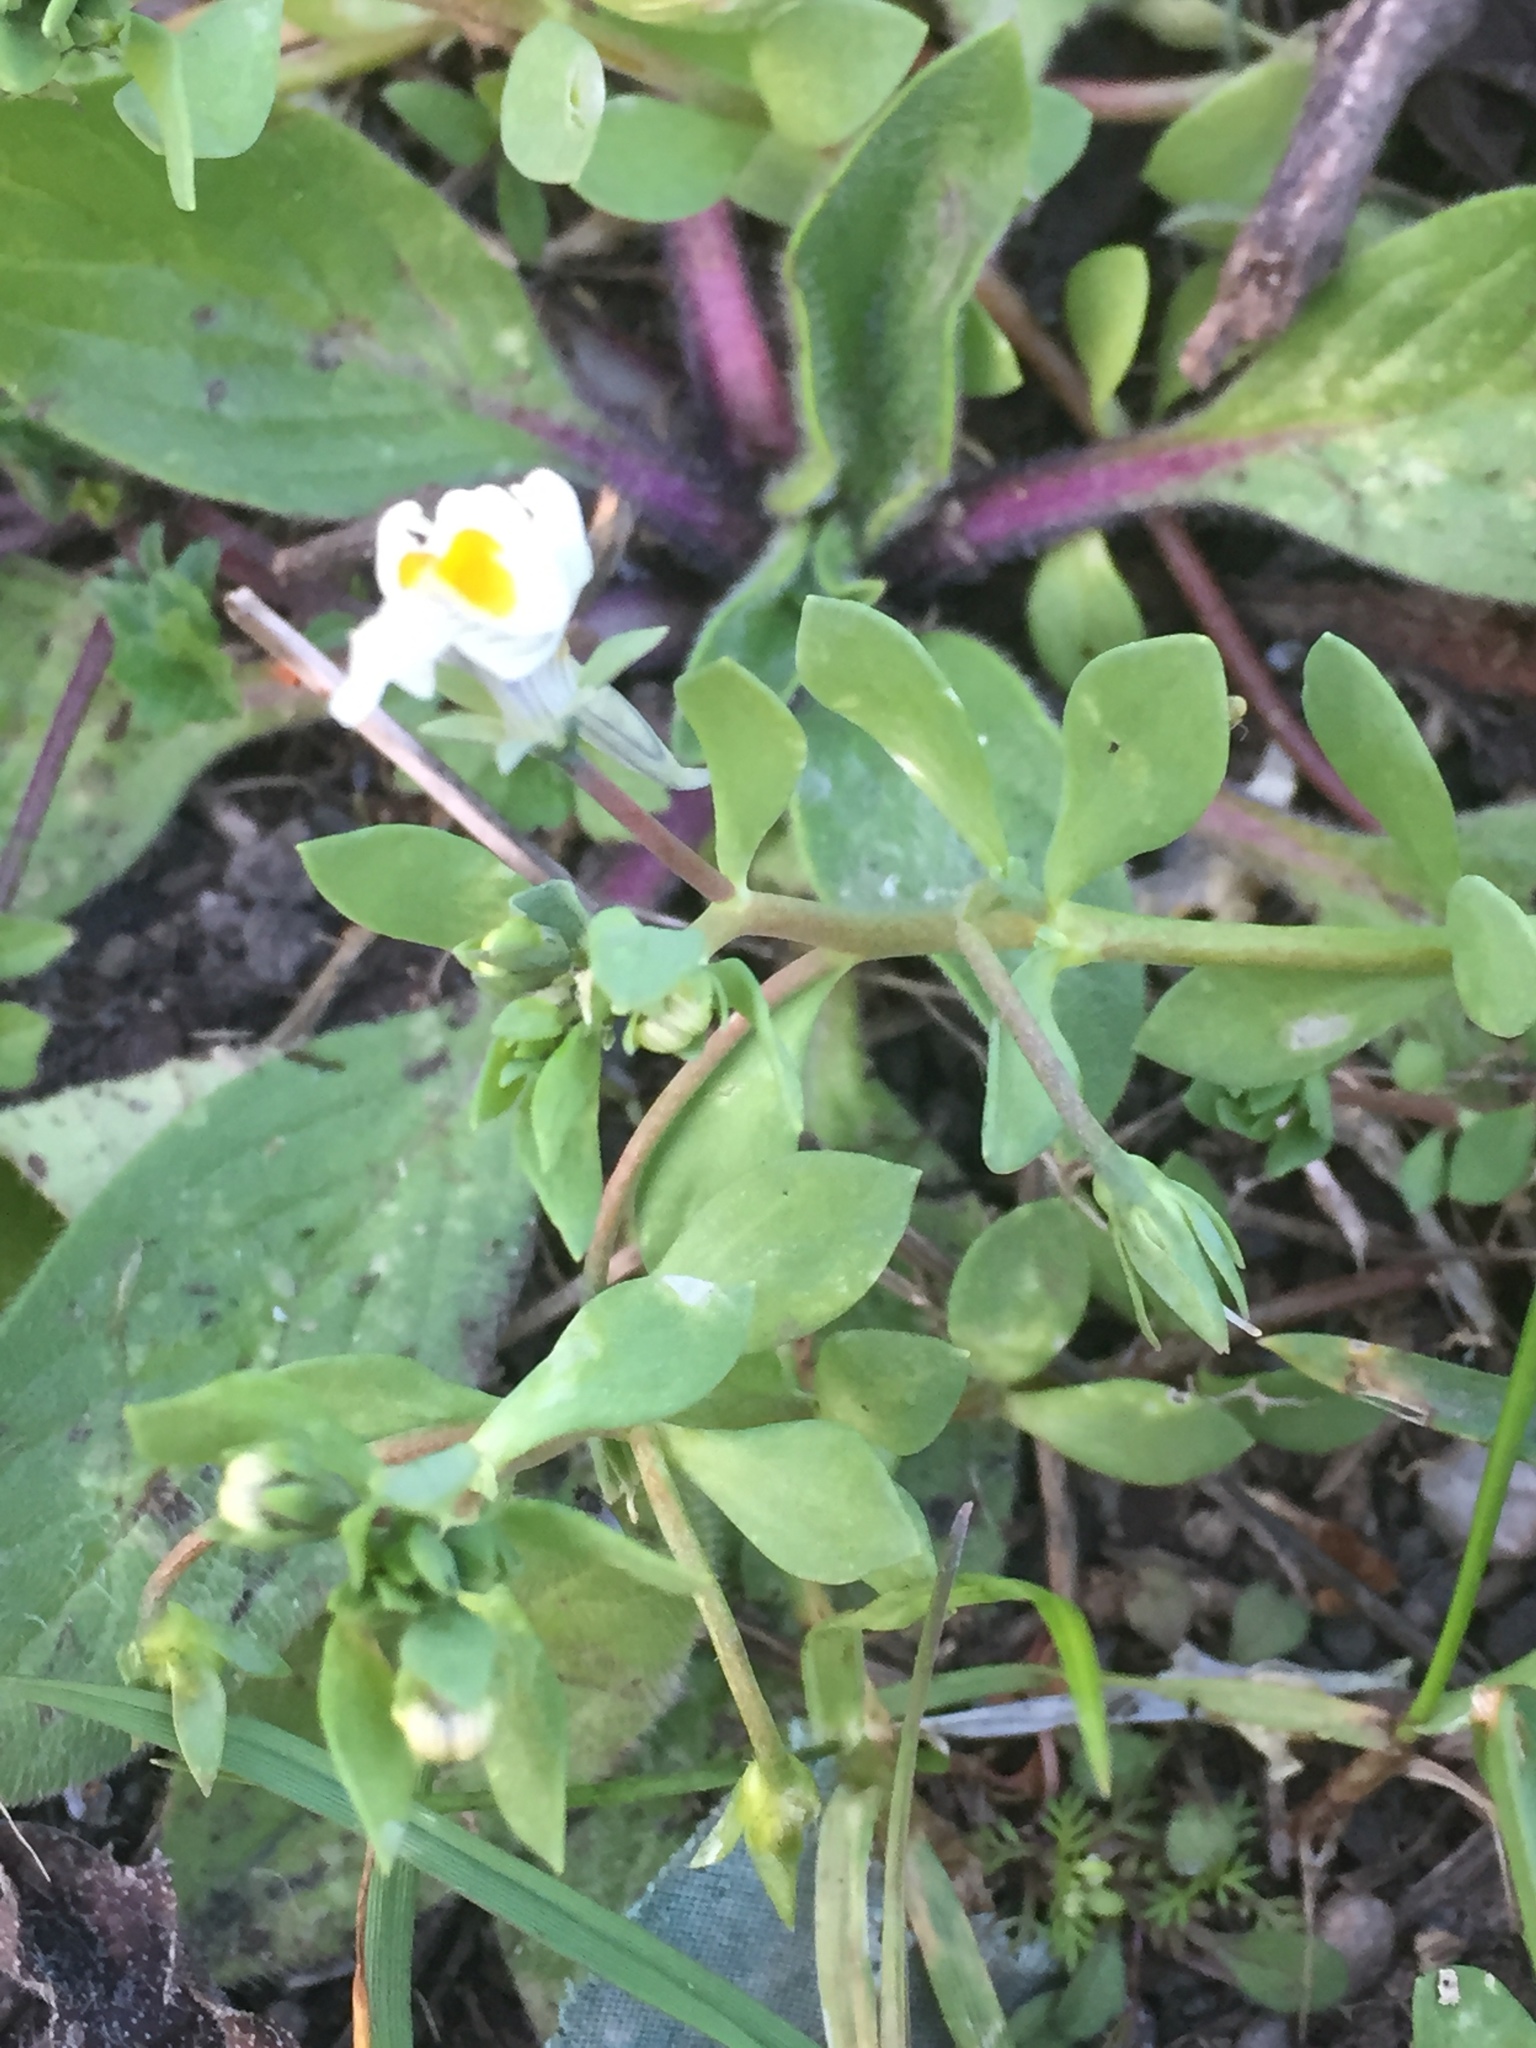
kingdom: Plantae
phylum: Tracheophyta
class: Magnoliopsida
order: Lamiales
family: Plantaginaceae
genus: Linaria
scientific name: Linaria triphylla
